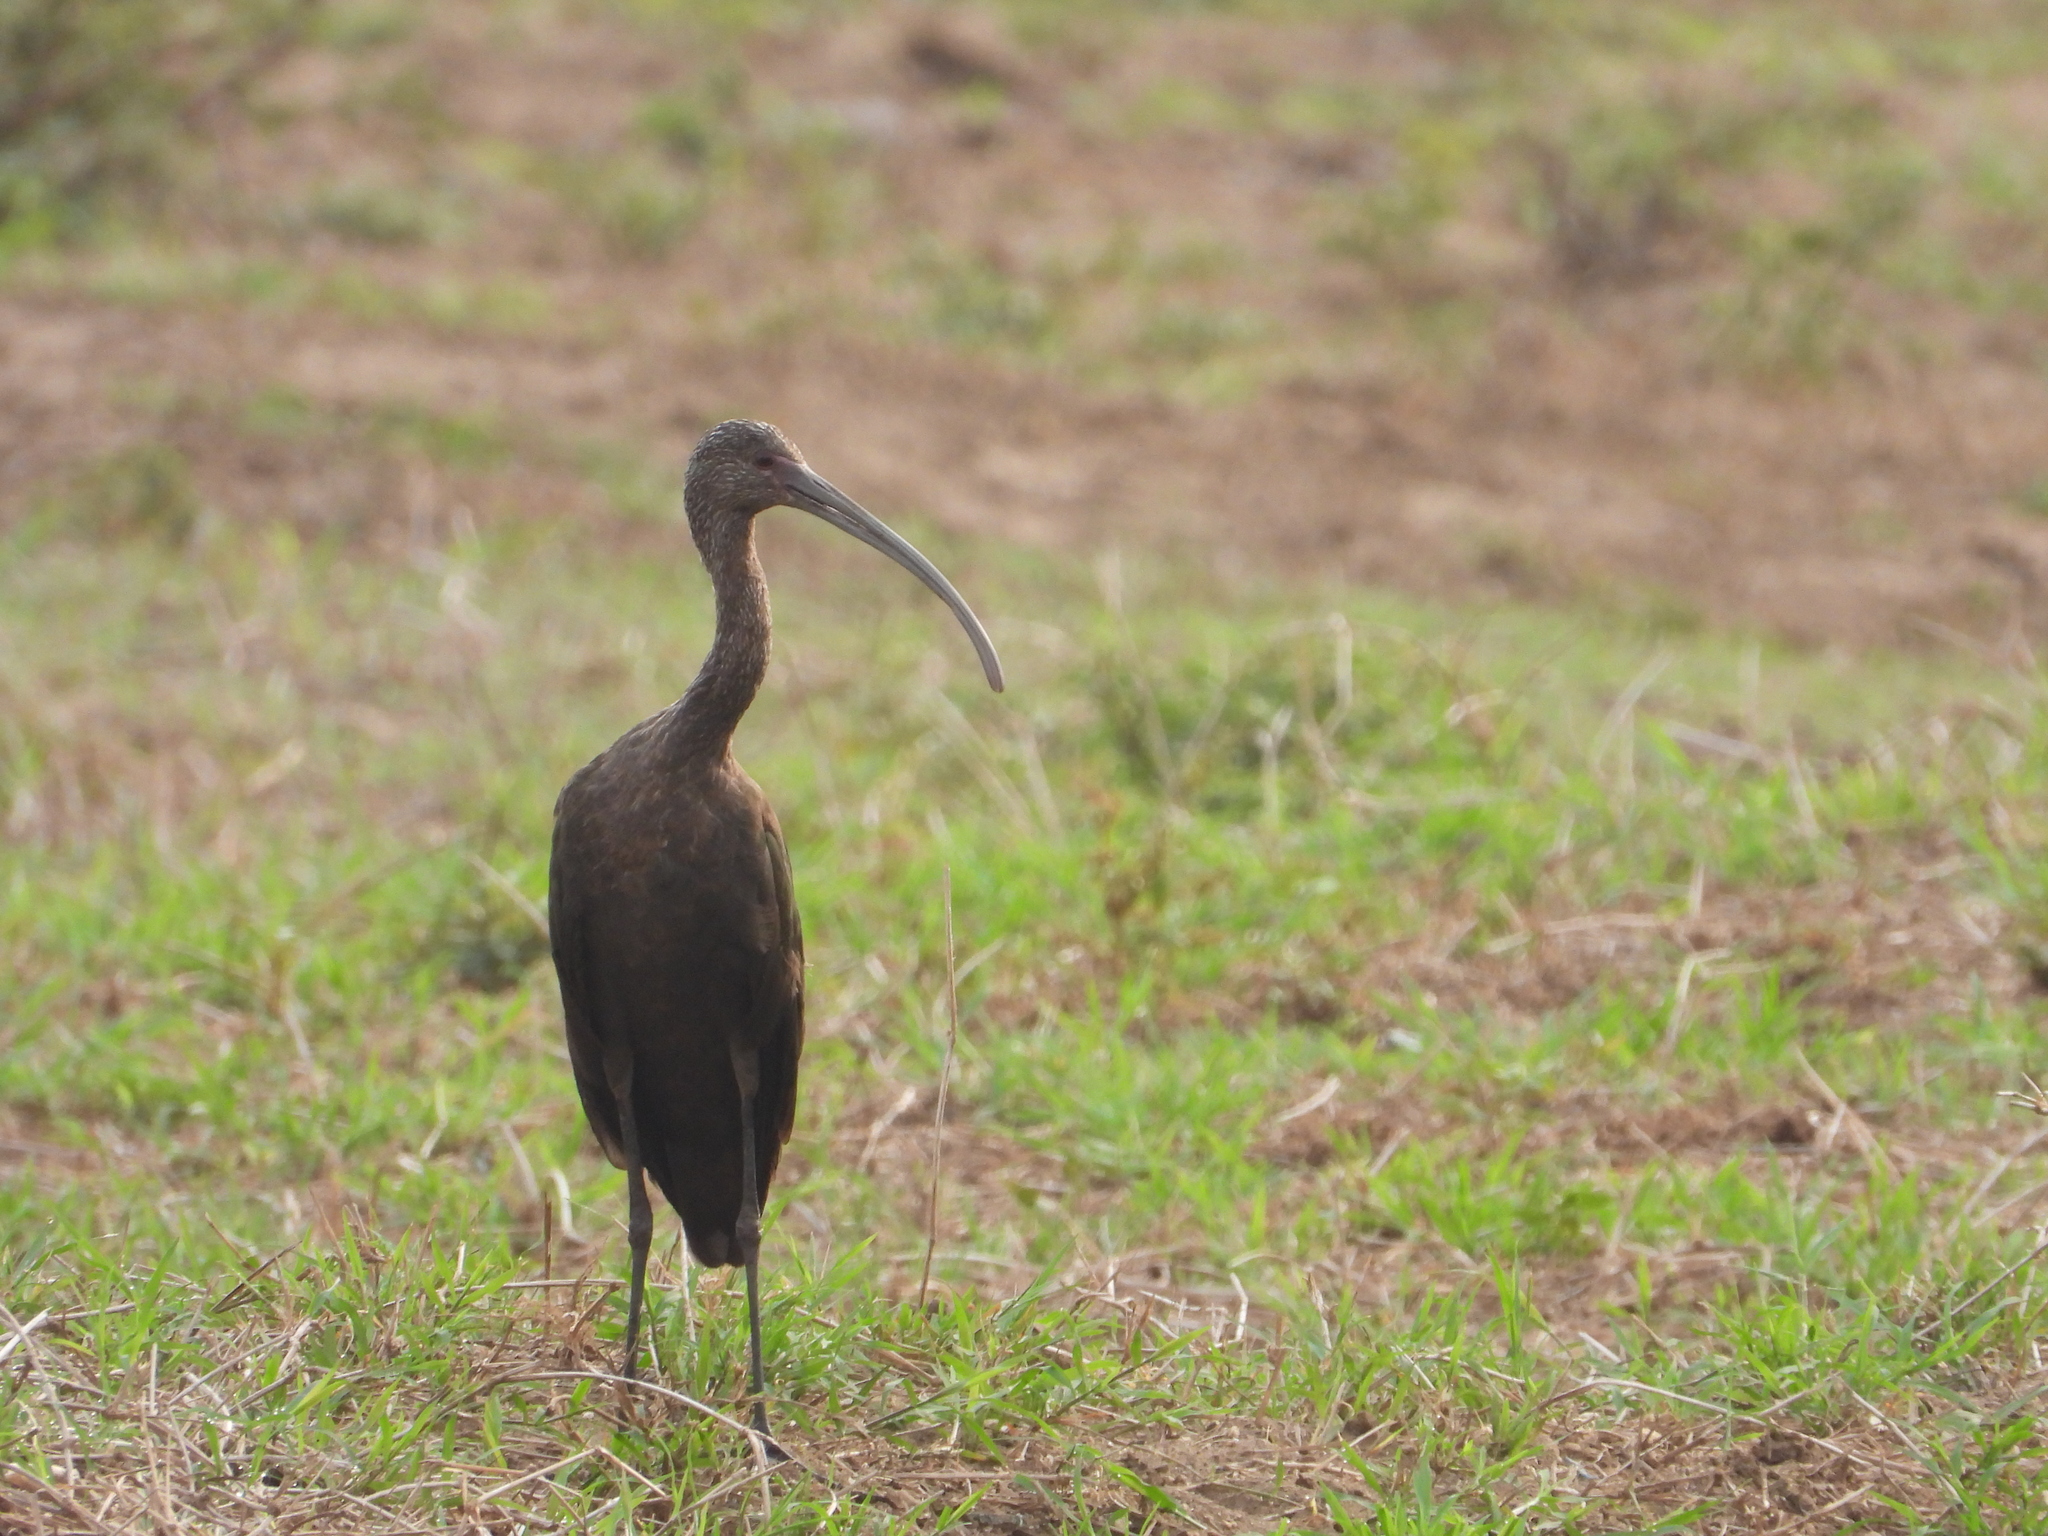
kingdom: Animalia
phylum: Chordata
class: Aves
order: Pelecaniformes
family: Threskiornithidae
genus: Plegadis
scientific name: Plegadis chihi
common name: White-faced ibis
